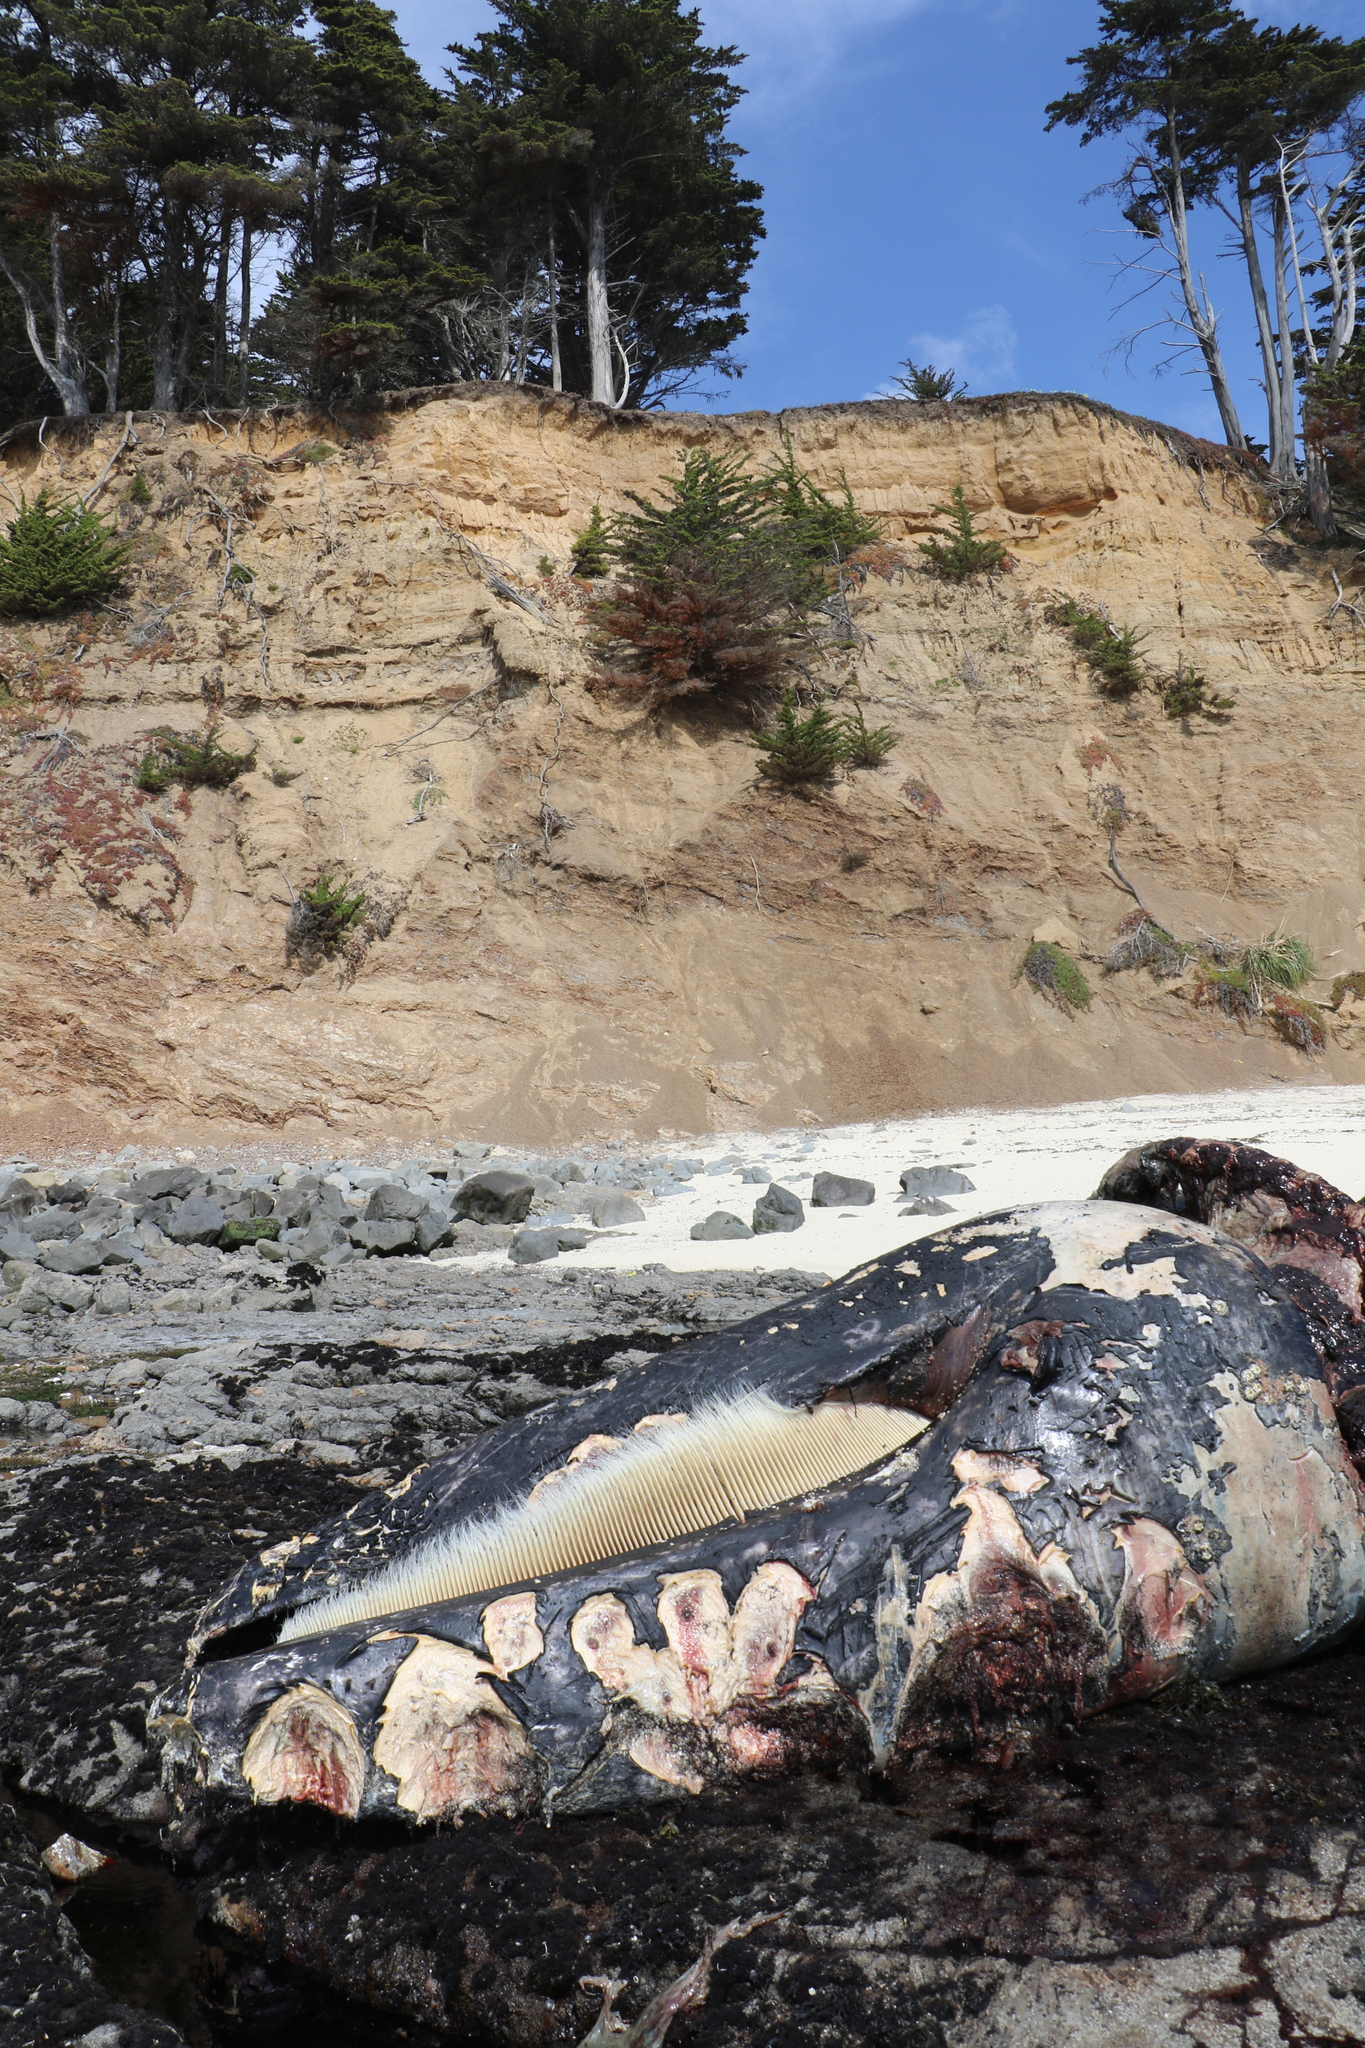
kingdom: Animalia
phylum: Chordata
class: Mammalia
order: Cetacea
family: Eschrichtiidae
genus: Eschrichtius
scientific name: Eschrichtius robustus
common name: Gray whale
